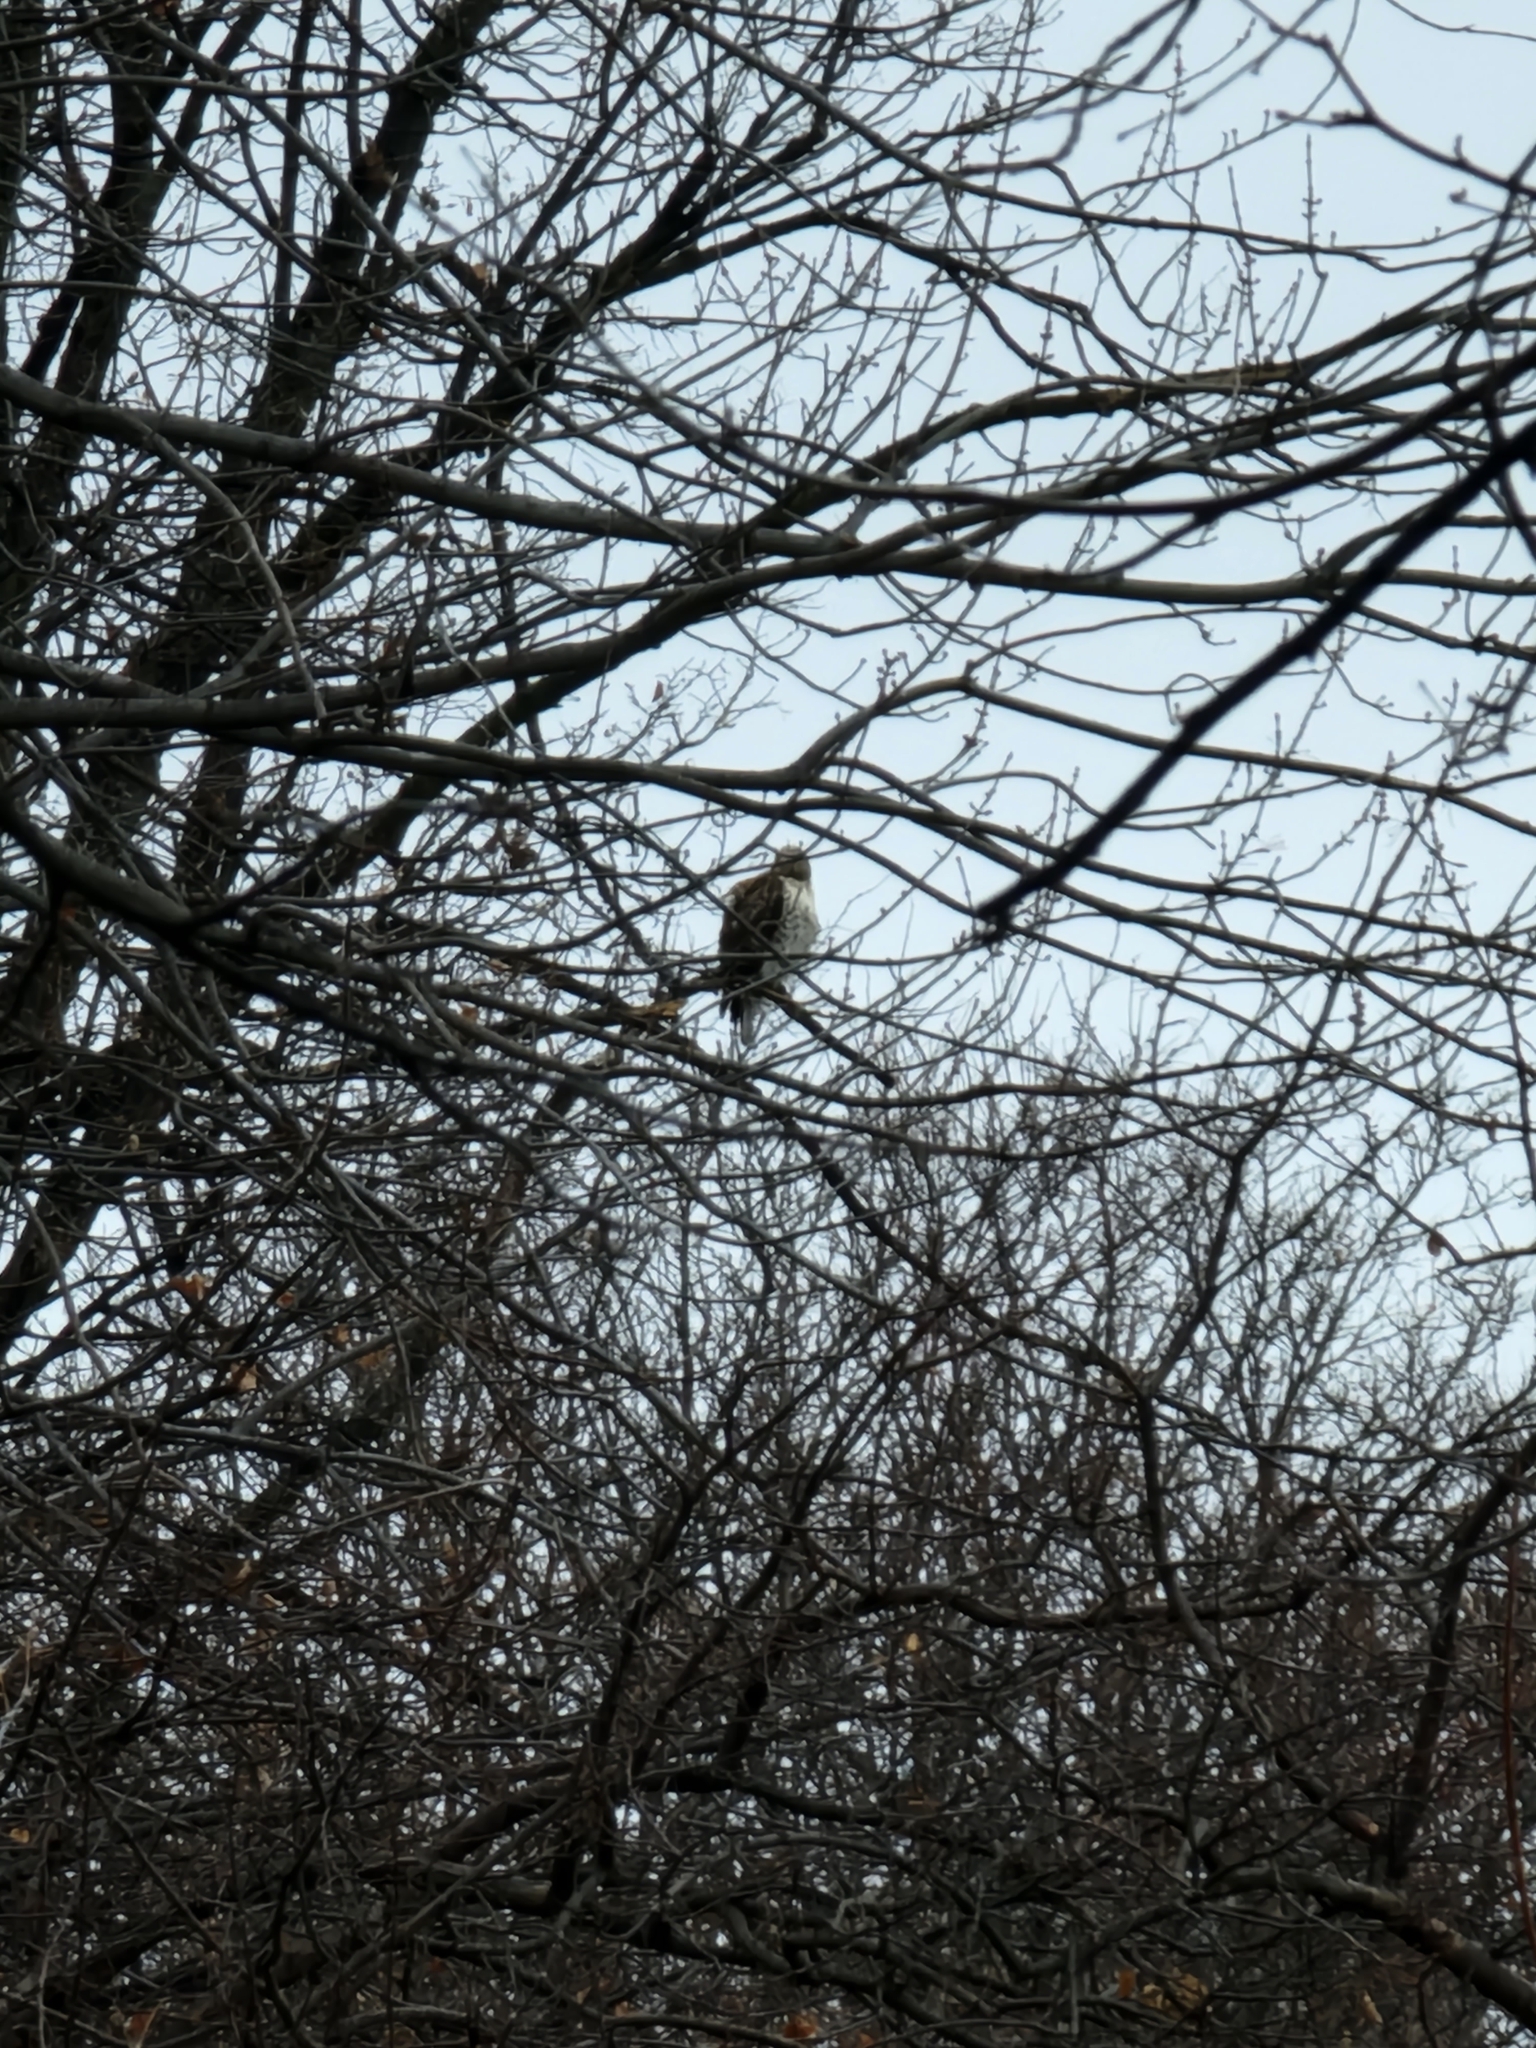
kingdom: Animalia
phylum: Chordata
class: Aves
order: Accipitriformes
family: Accipitridae
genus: Buteo
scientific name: Buteo jamaicensis
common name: Red-tailed hawk
